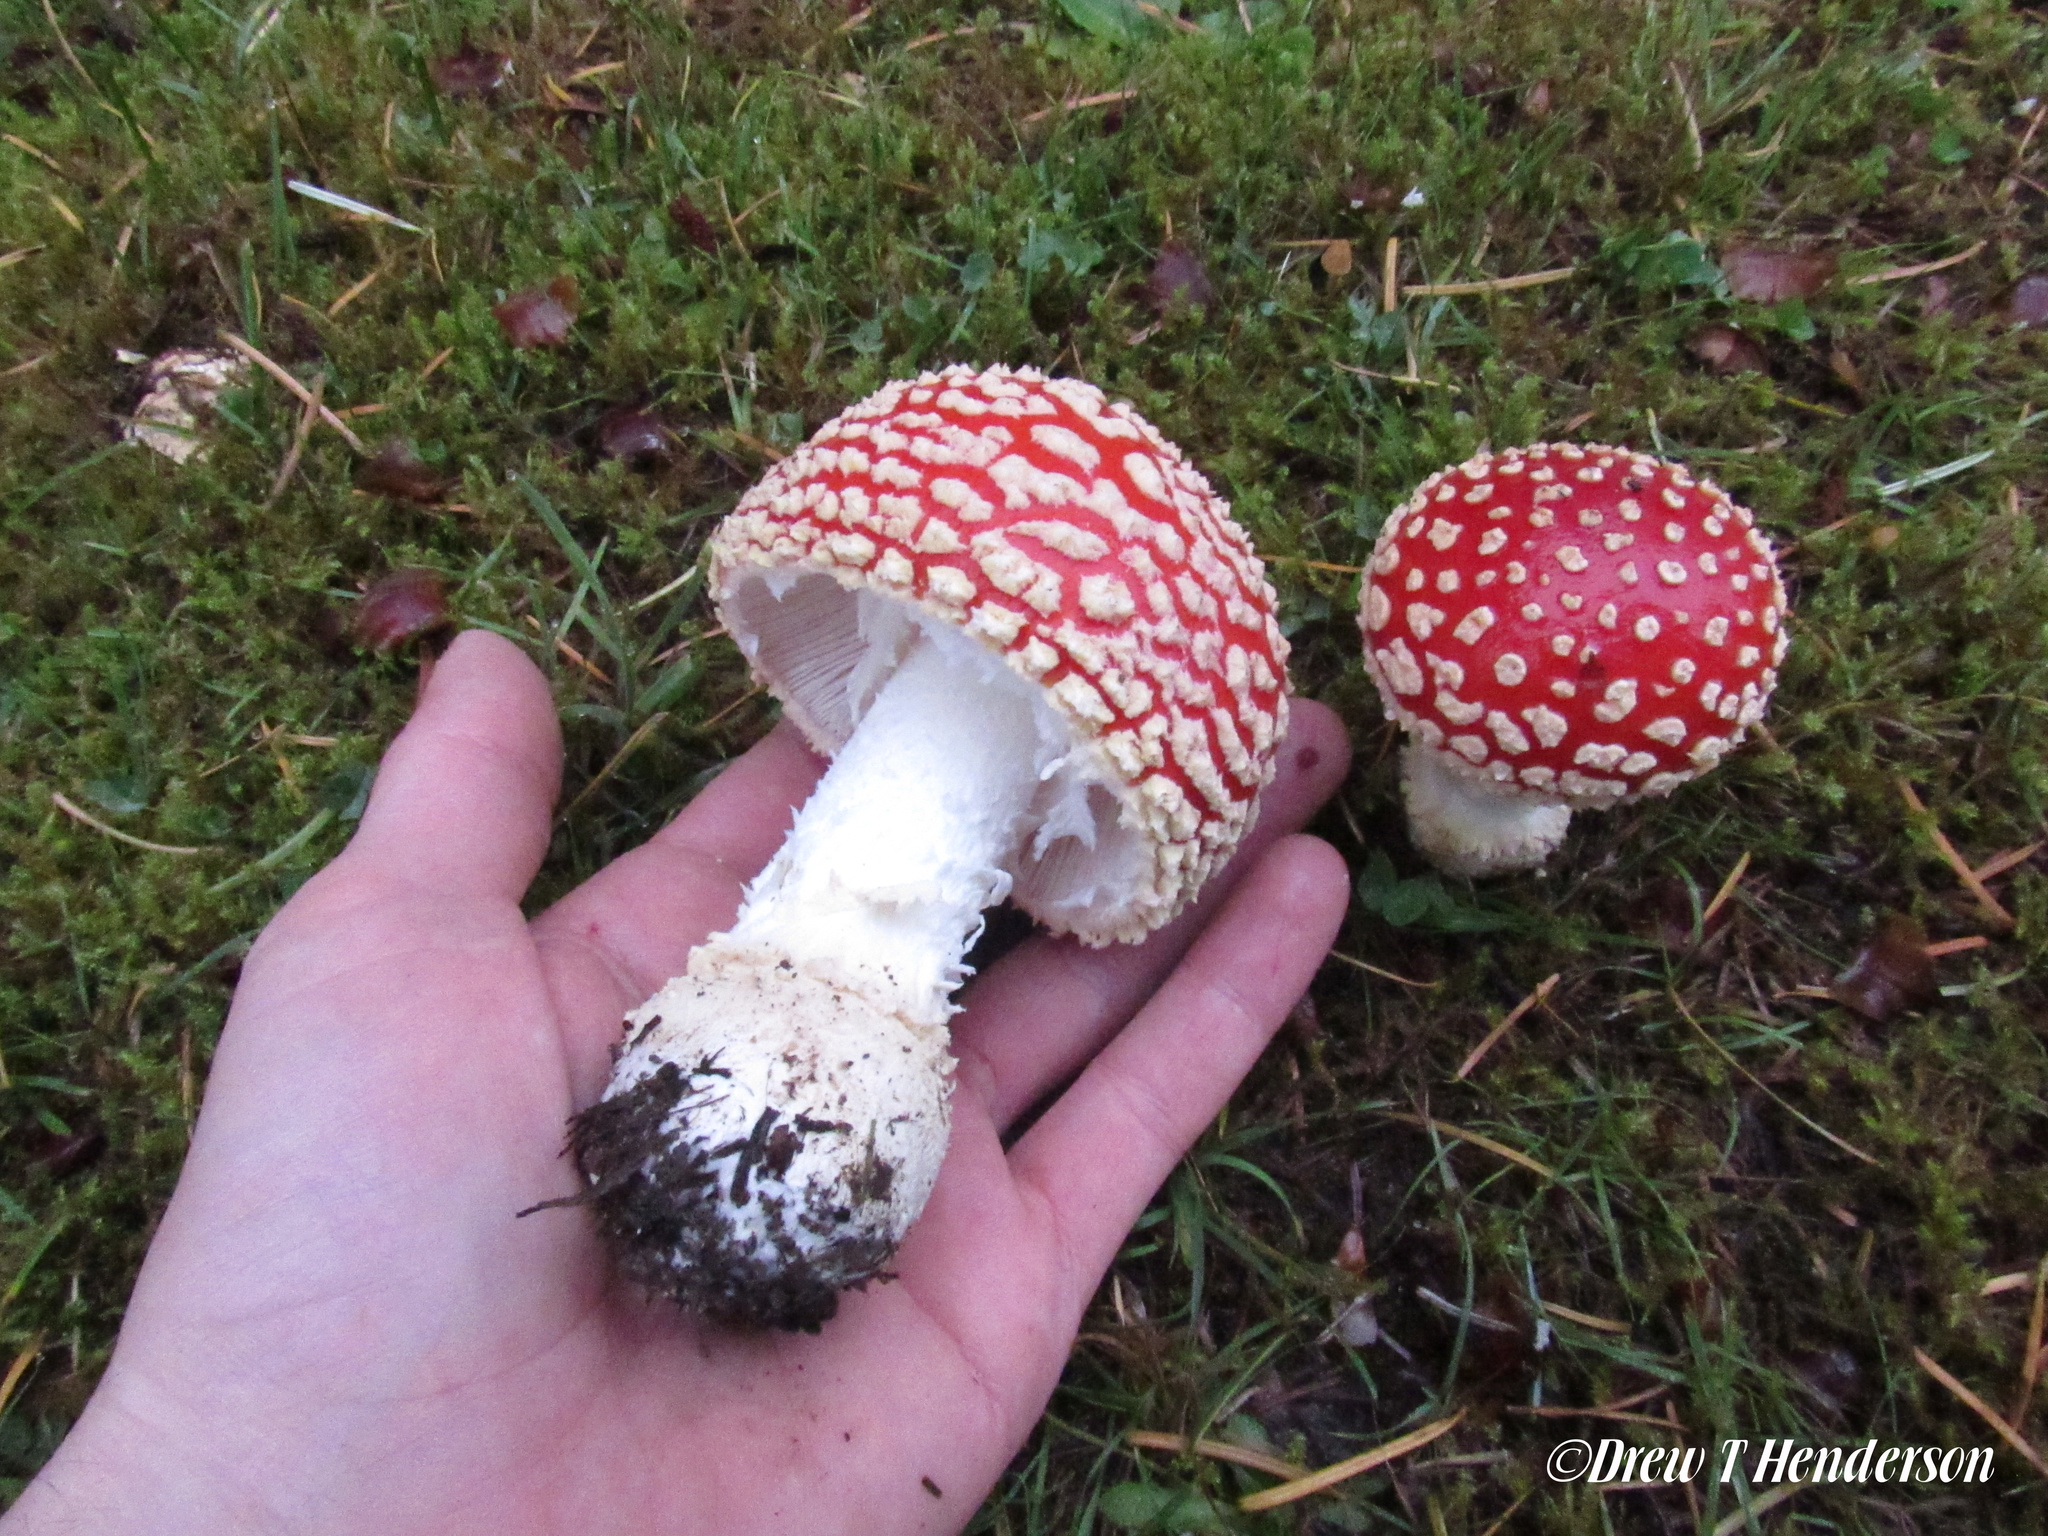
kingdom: Fungi
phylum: Basidiomycota
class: Agaricomycetes
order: Agaricales
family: Amanitaceae
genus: Amanita
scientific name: Amanita muscaria
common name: Fly agaric
